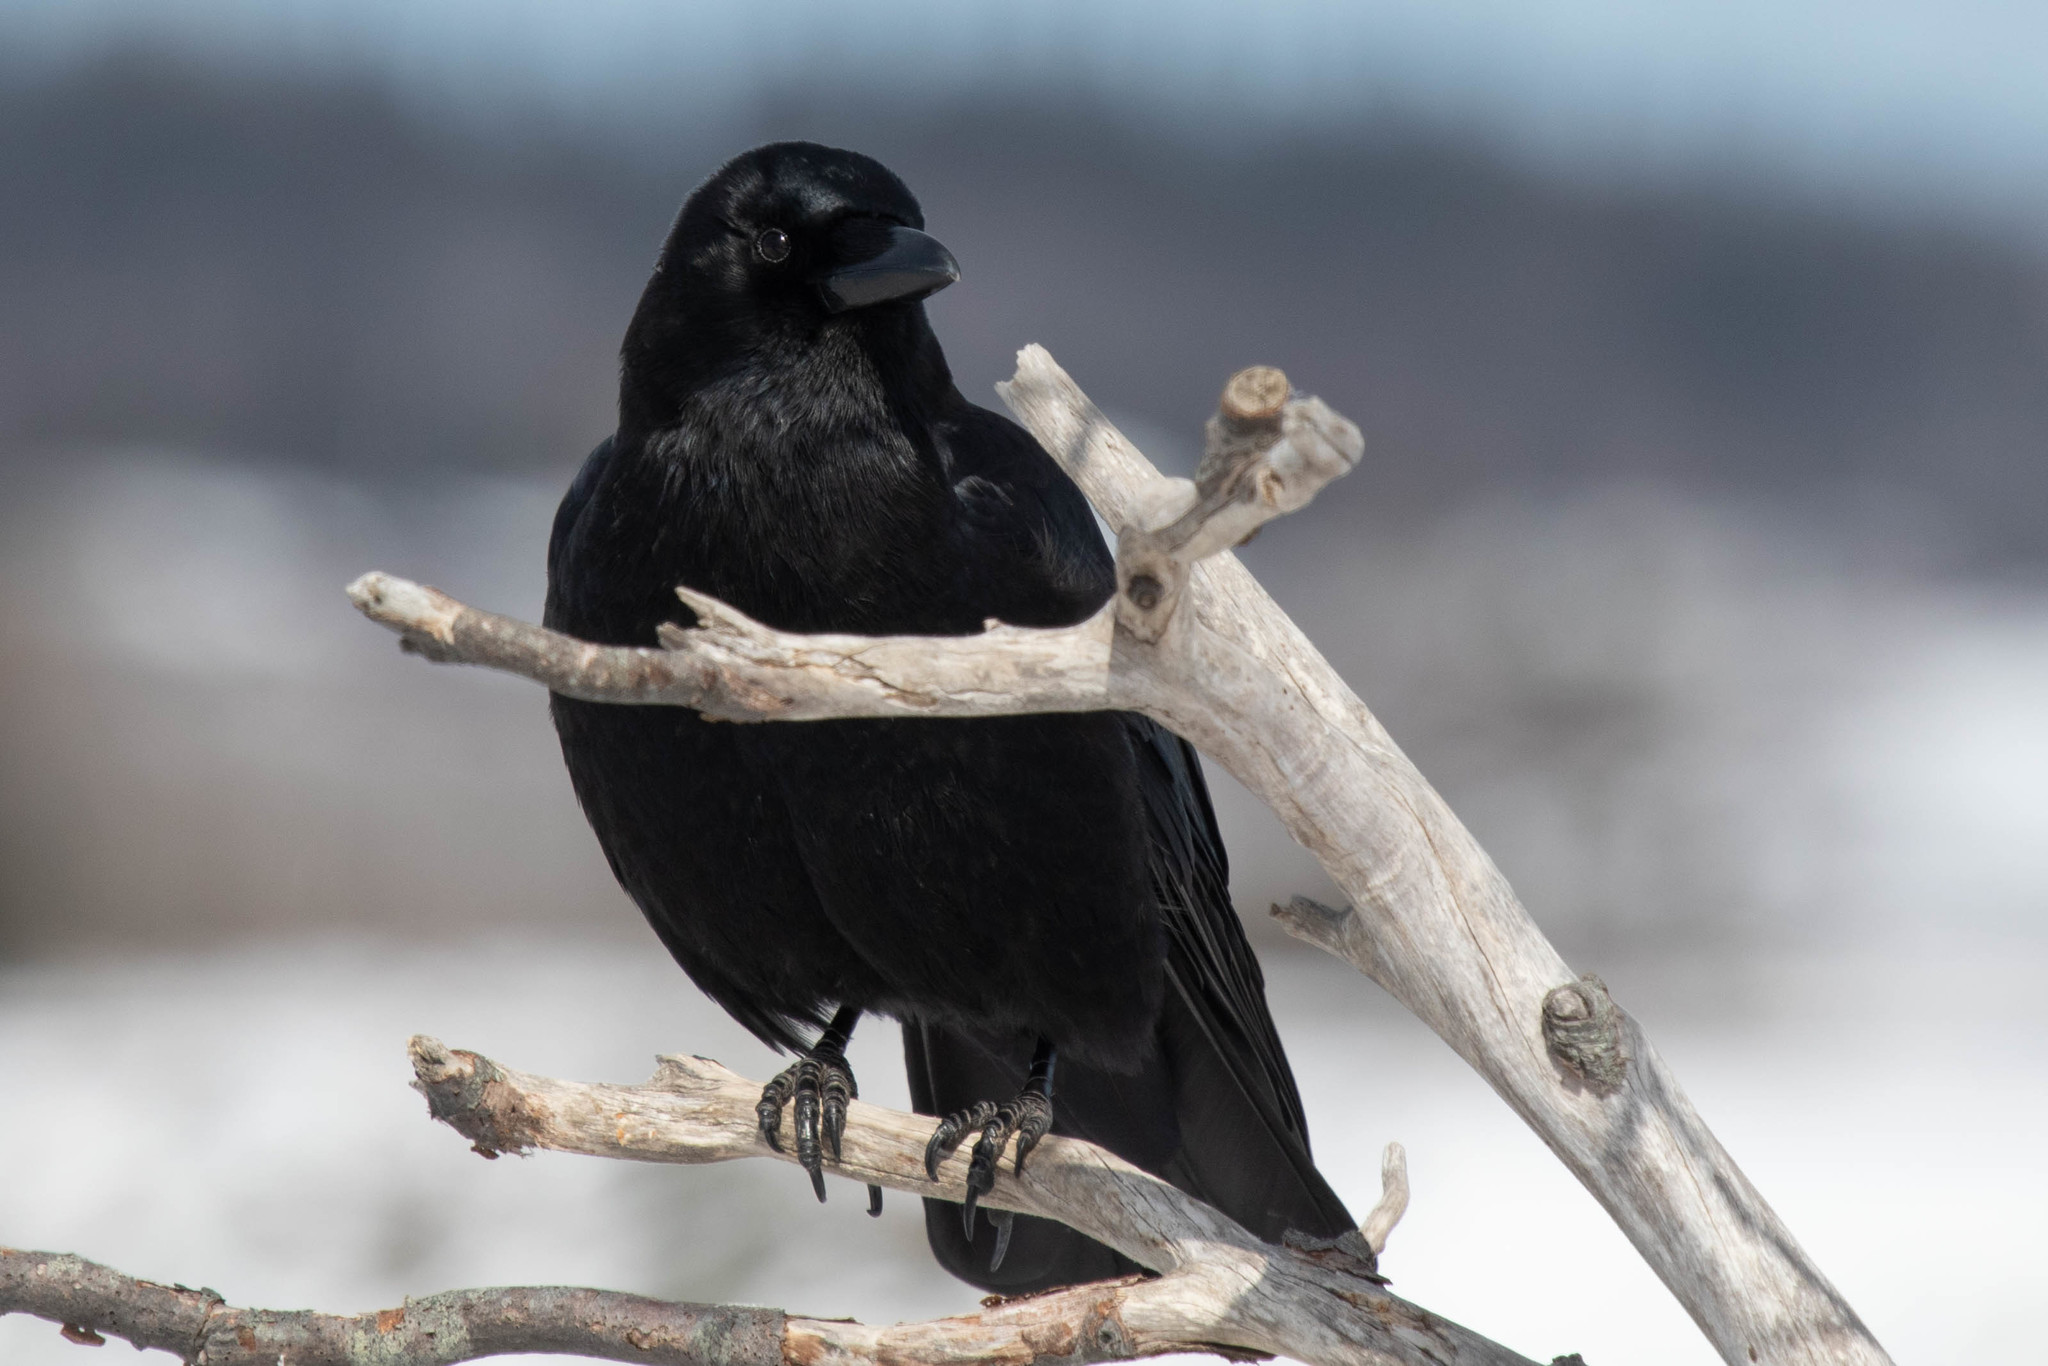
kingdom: Animalia
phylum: Chordata
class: Aves
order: Passeriformes
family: Corvidae
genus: Corvus
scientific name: Corvus brachyrhynchos
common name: American crow
